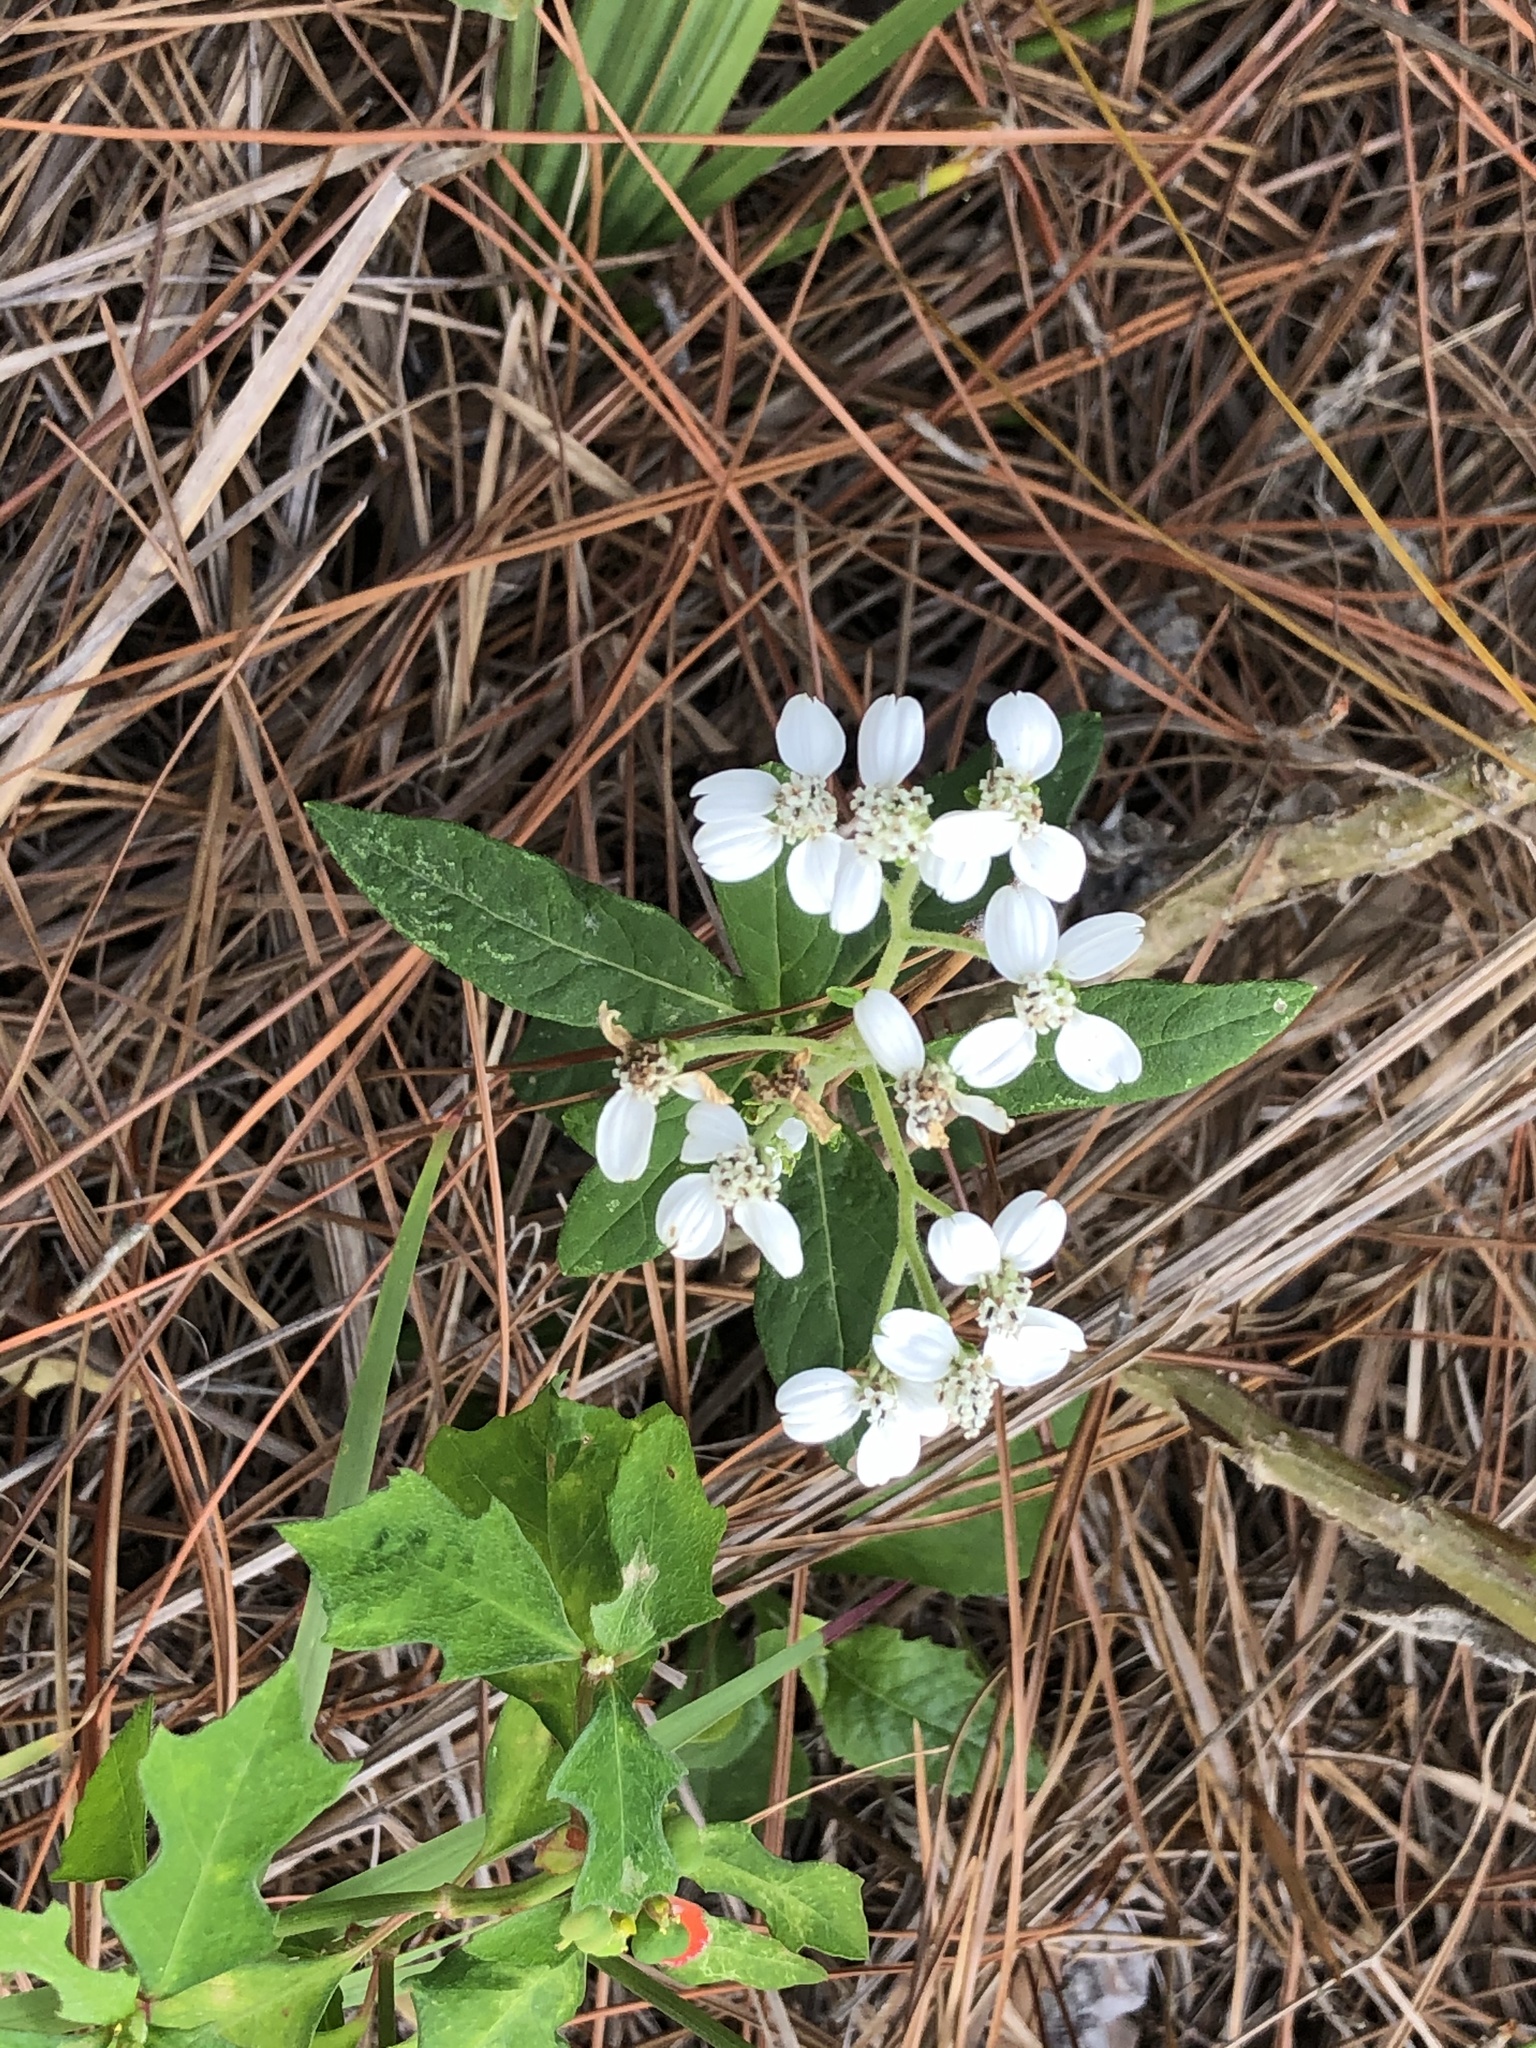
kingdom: Plantae
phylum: Tracheophyta
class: Magnoliopsida
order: Asterales
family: Asteraceae
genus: Verbesina
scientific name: Verbesina virginica
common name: Frostweed
